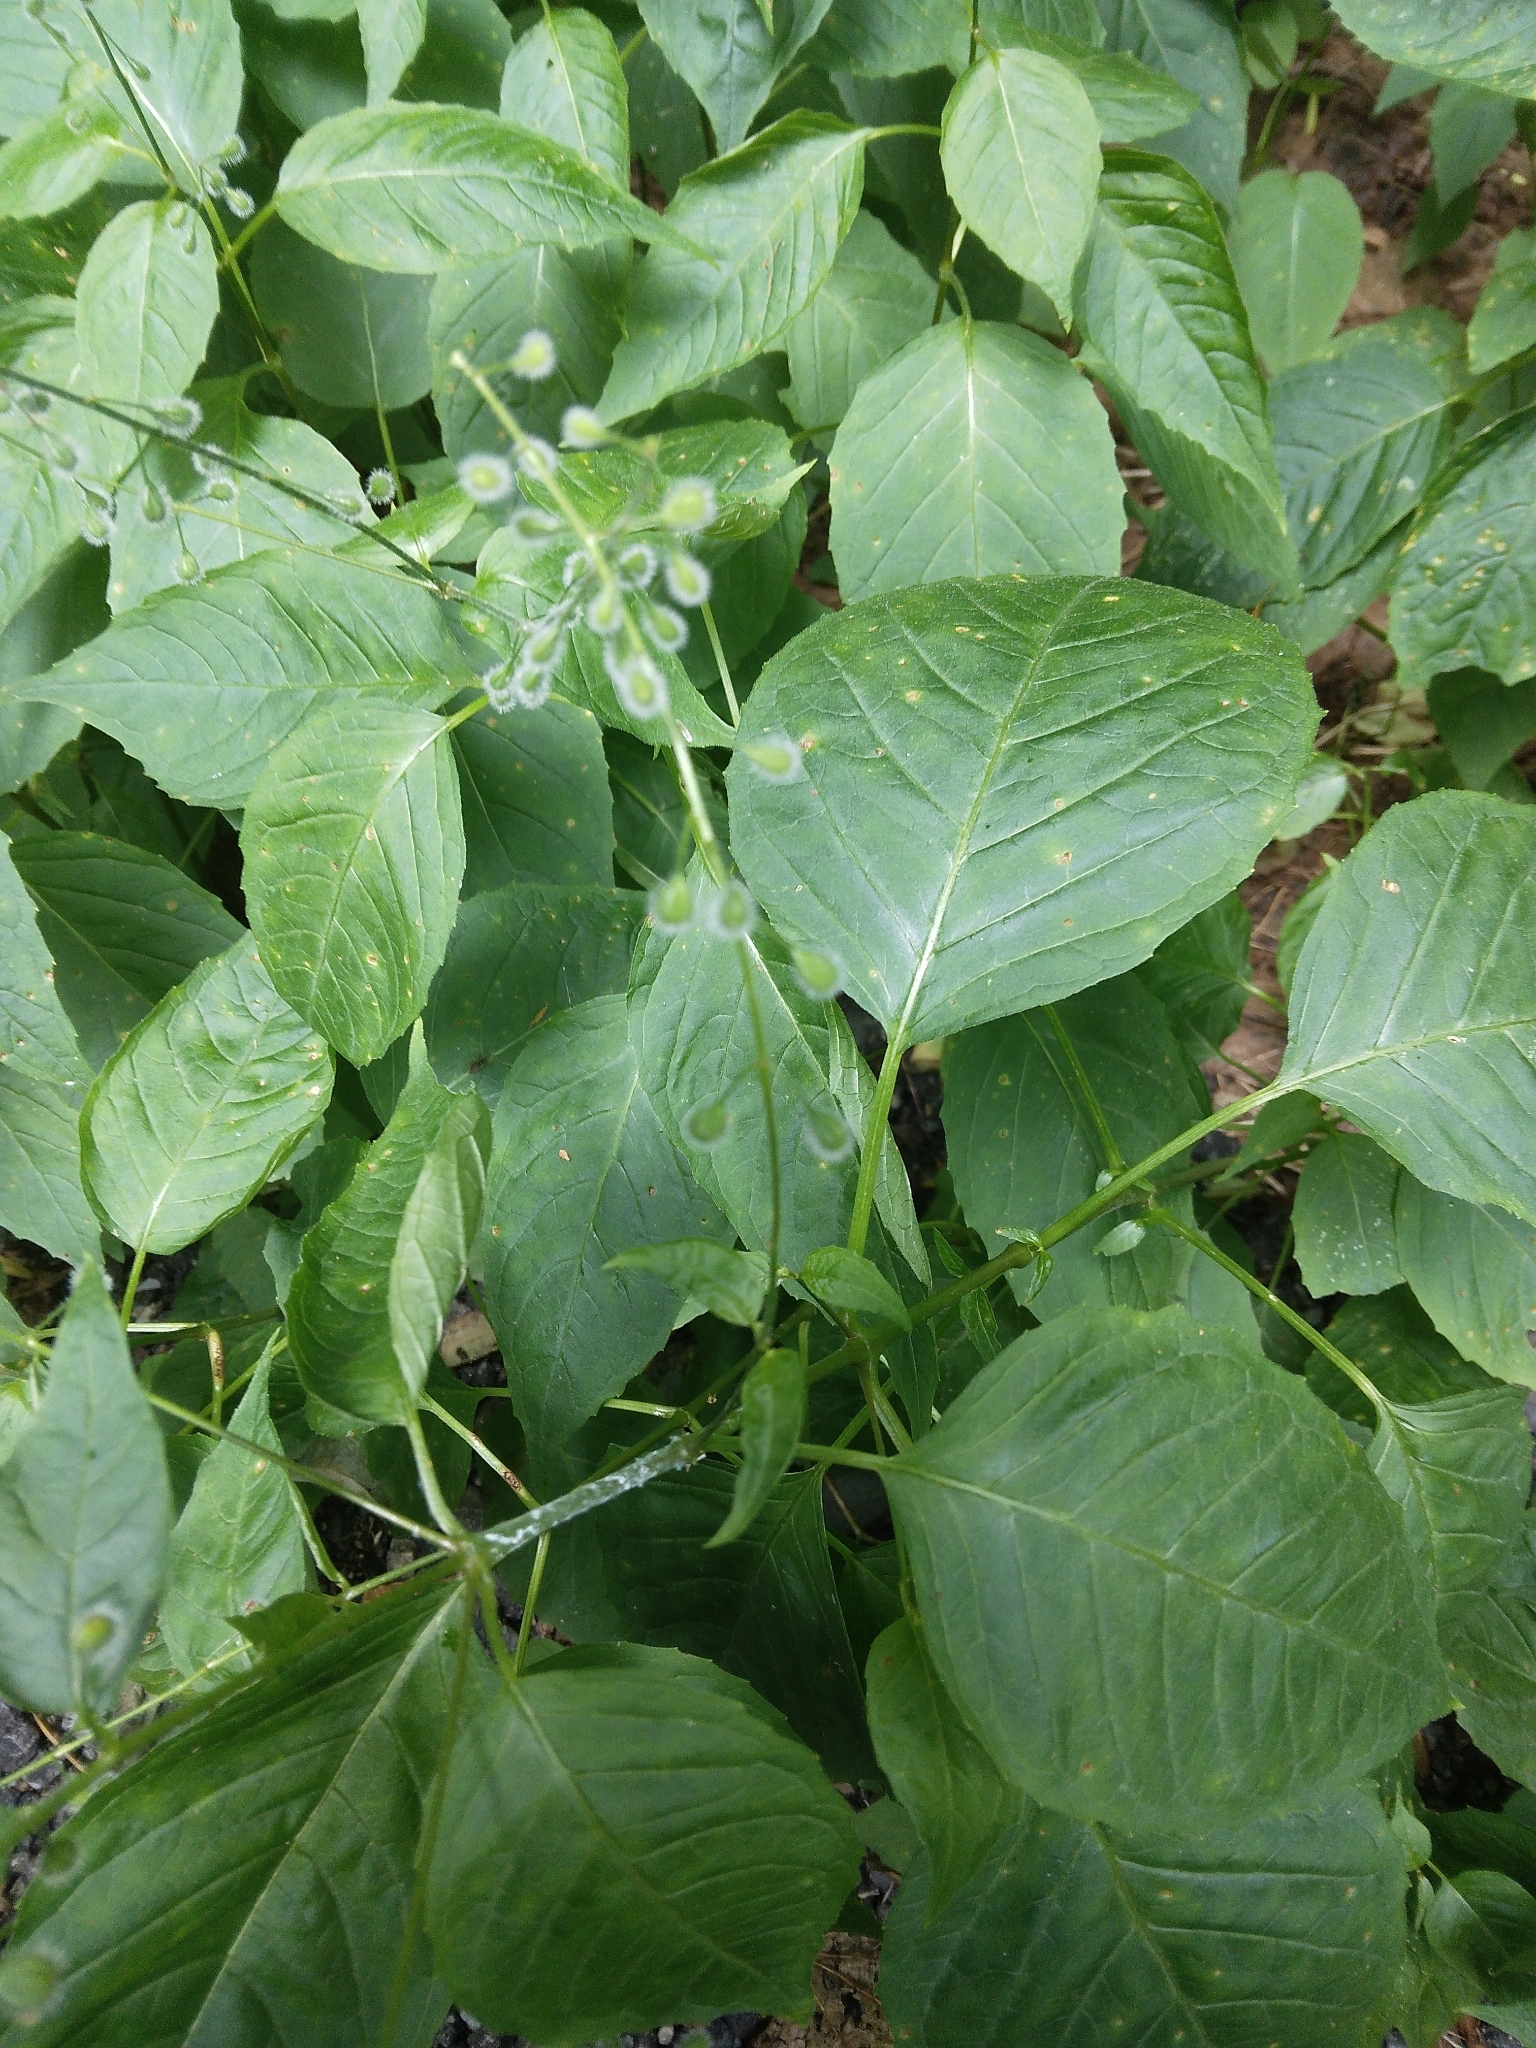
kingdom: Plantae
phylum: Tracheophyta
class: Magnoliopsida
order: Myrtales
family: Onagraceae
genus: Circaea
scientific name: Circaea canadensis
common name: Broad-leaved enchanter's nightshade
